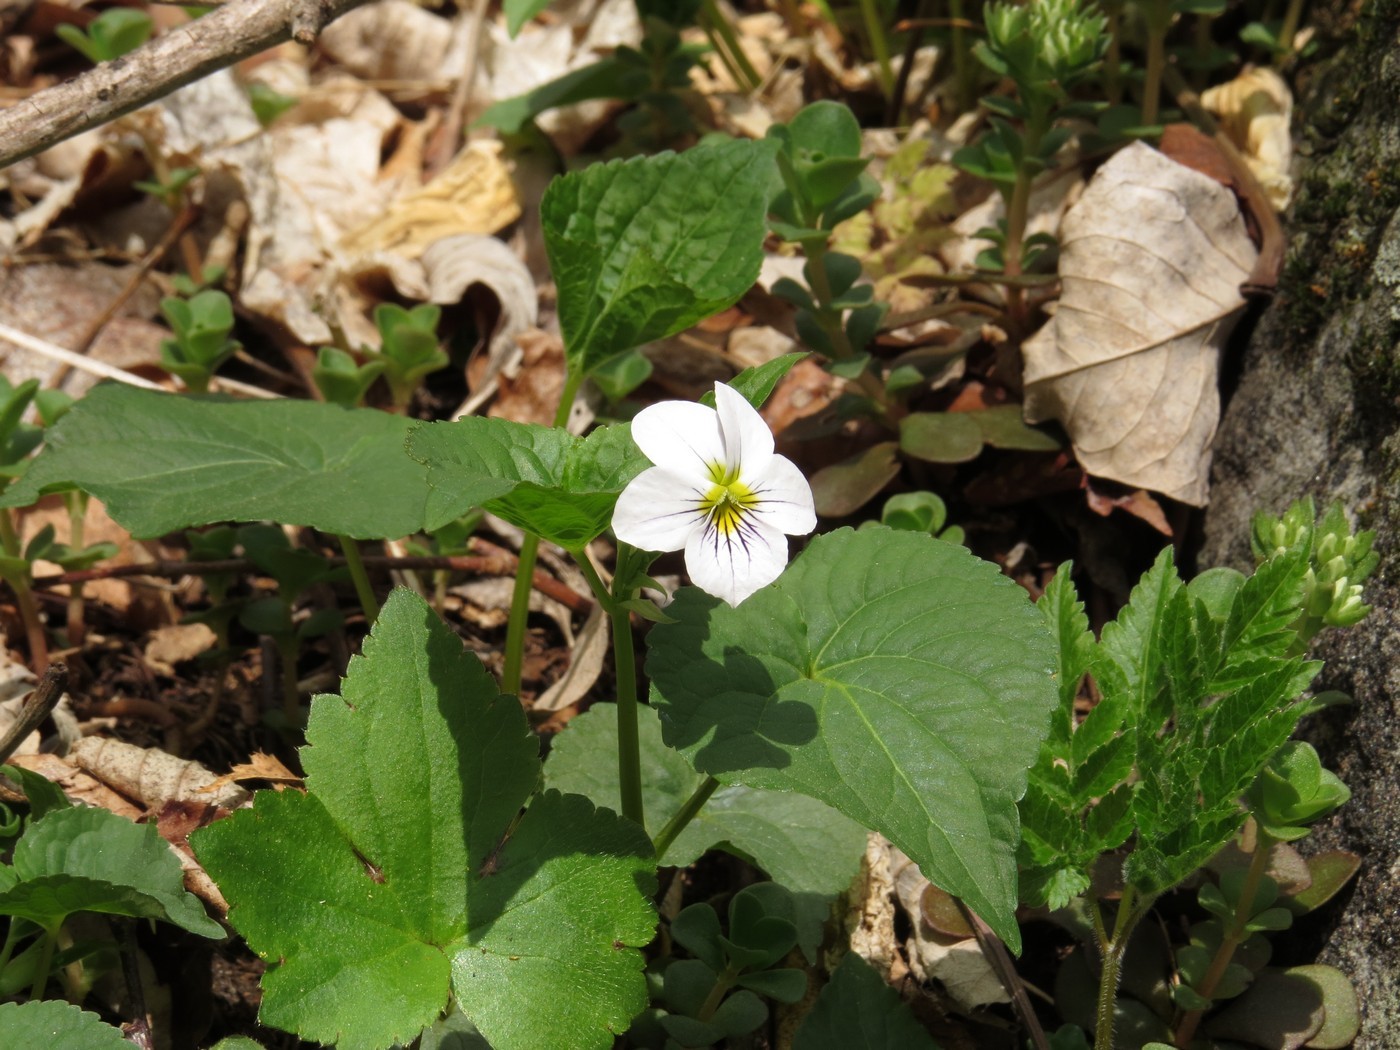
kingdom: Plantae
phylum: Tracheophyta
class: Magnoliopsida
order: Malpighiales
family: Violaceae
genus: Viola
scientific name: Viola canadensis
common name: Canada violet
